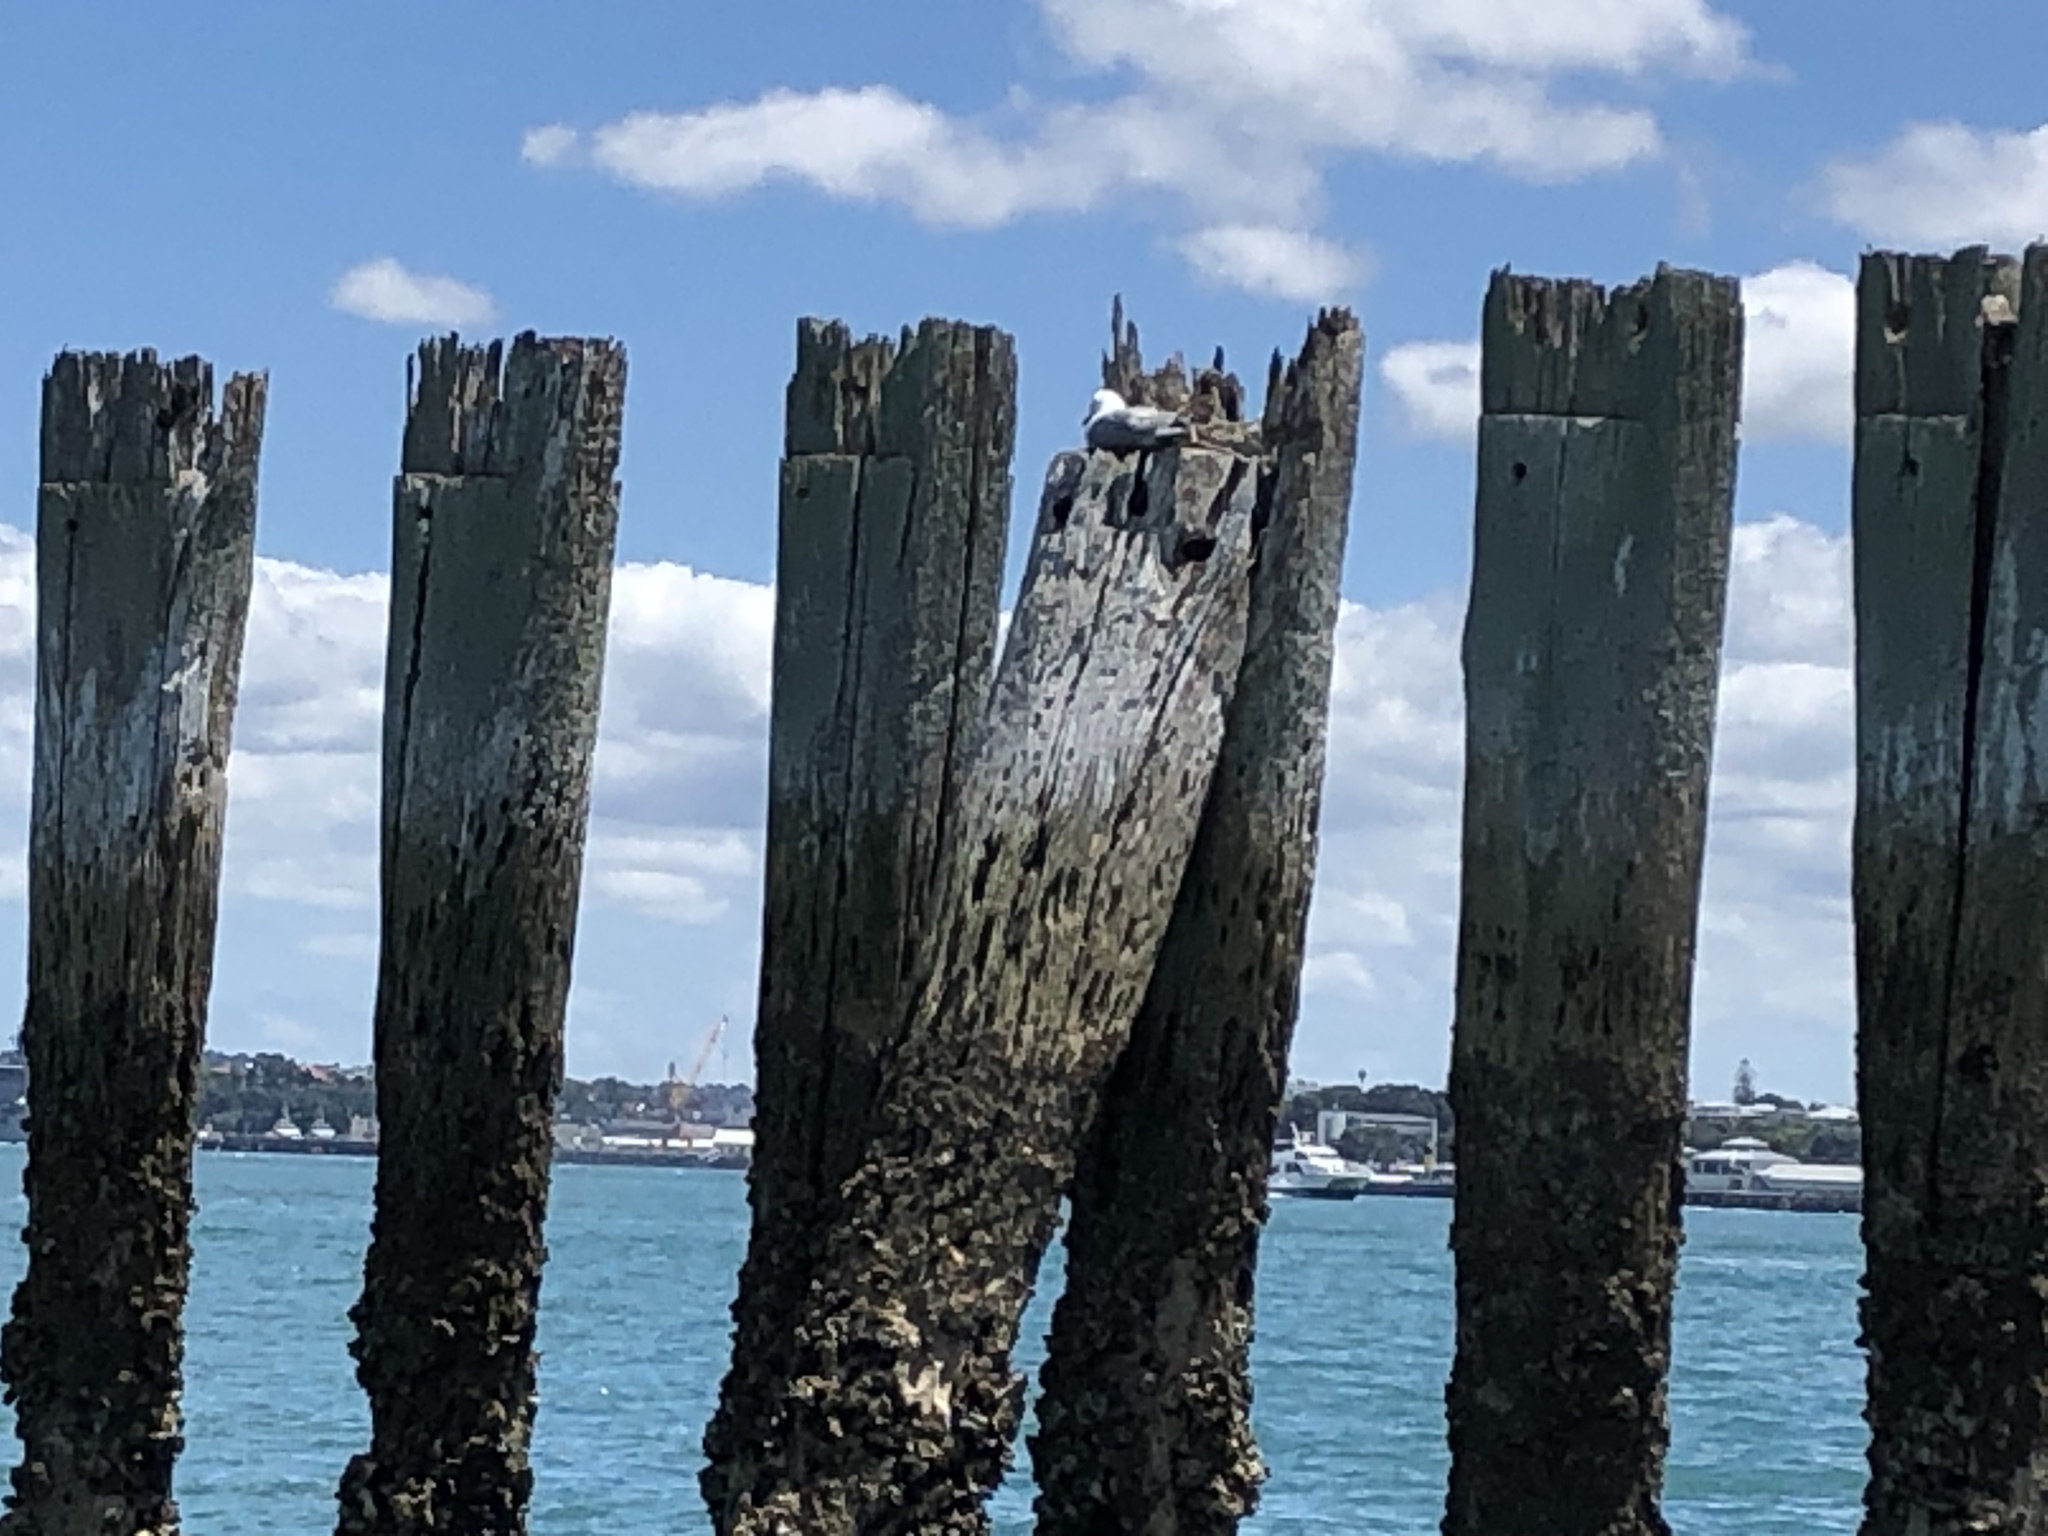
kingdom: Animalia
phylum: Chordata
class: Aves
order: Charadriiformes
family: Laridae
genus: Chroicocephalus
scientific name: Chroicocephalus novaehollandiae
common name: Silver gull
